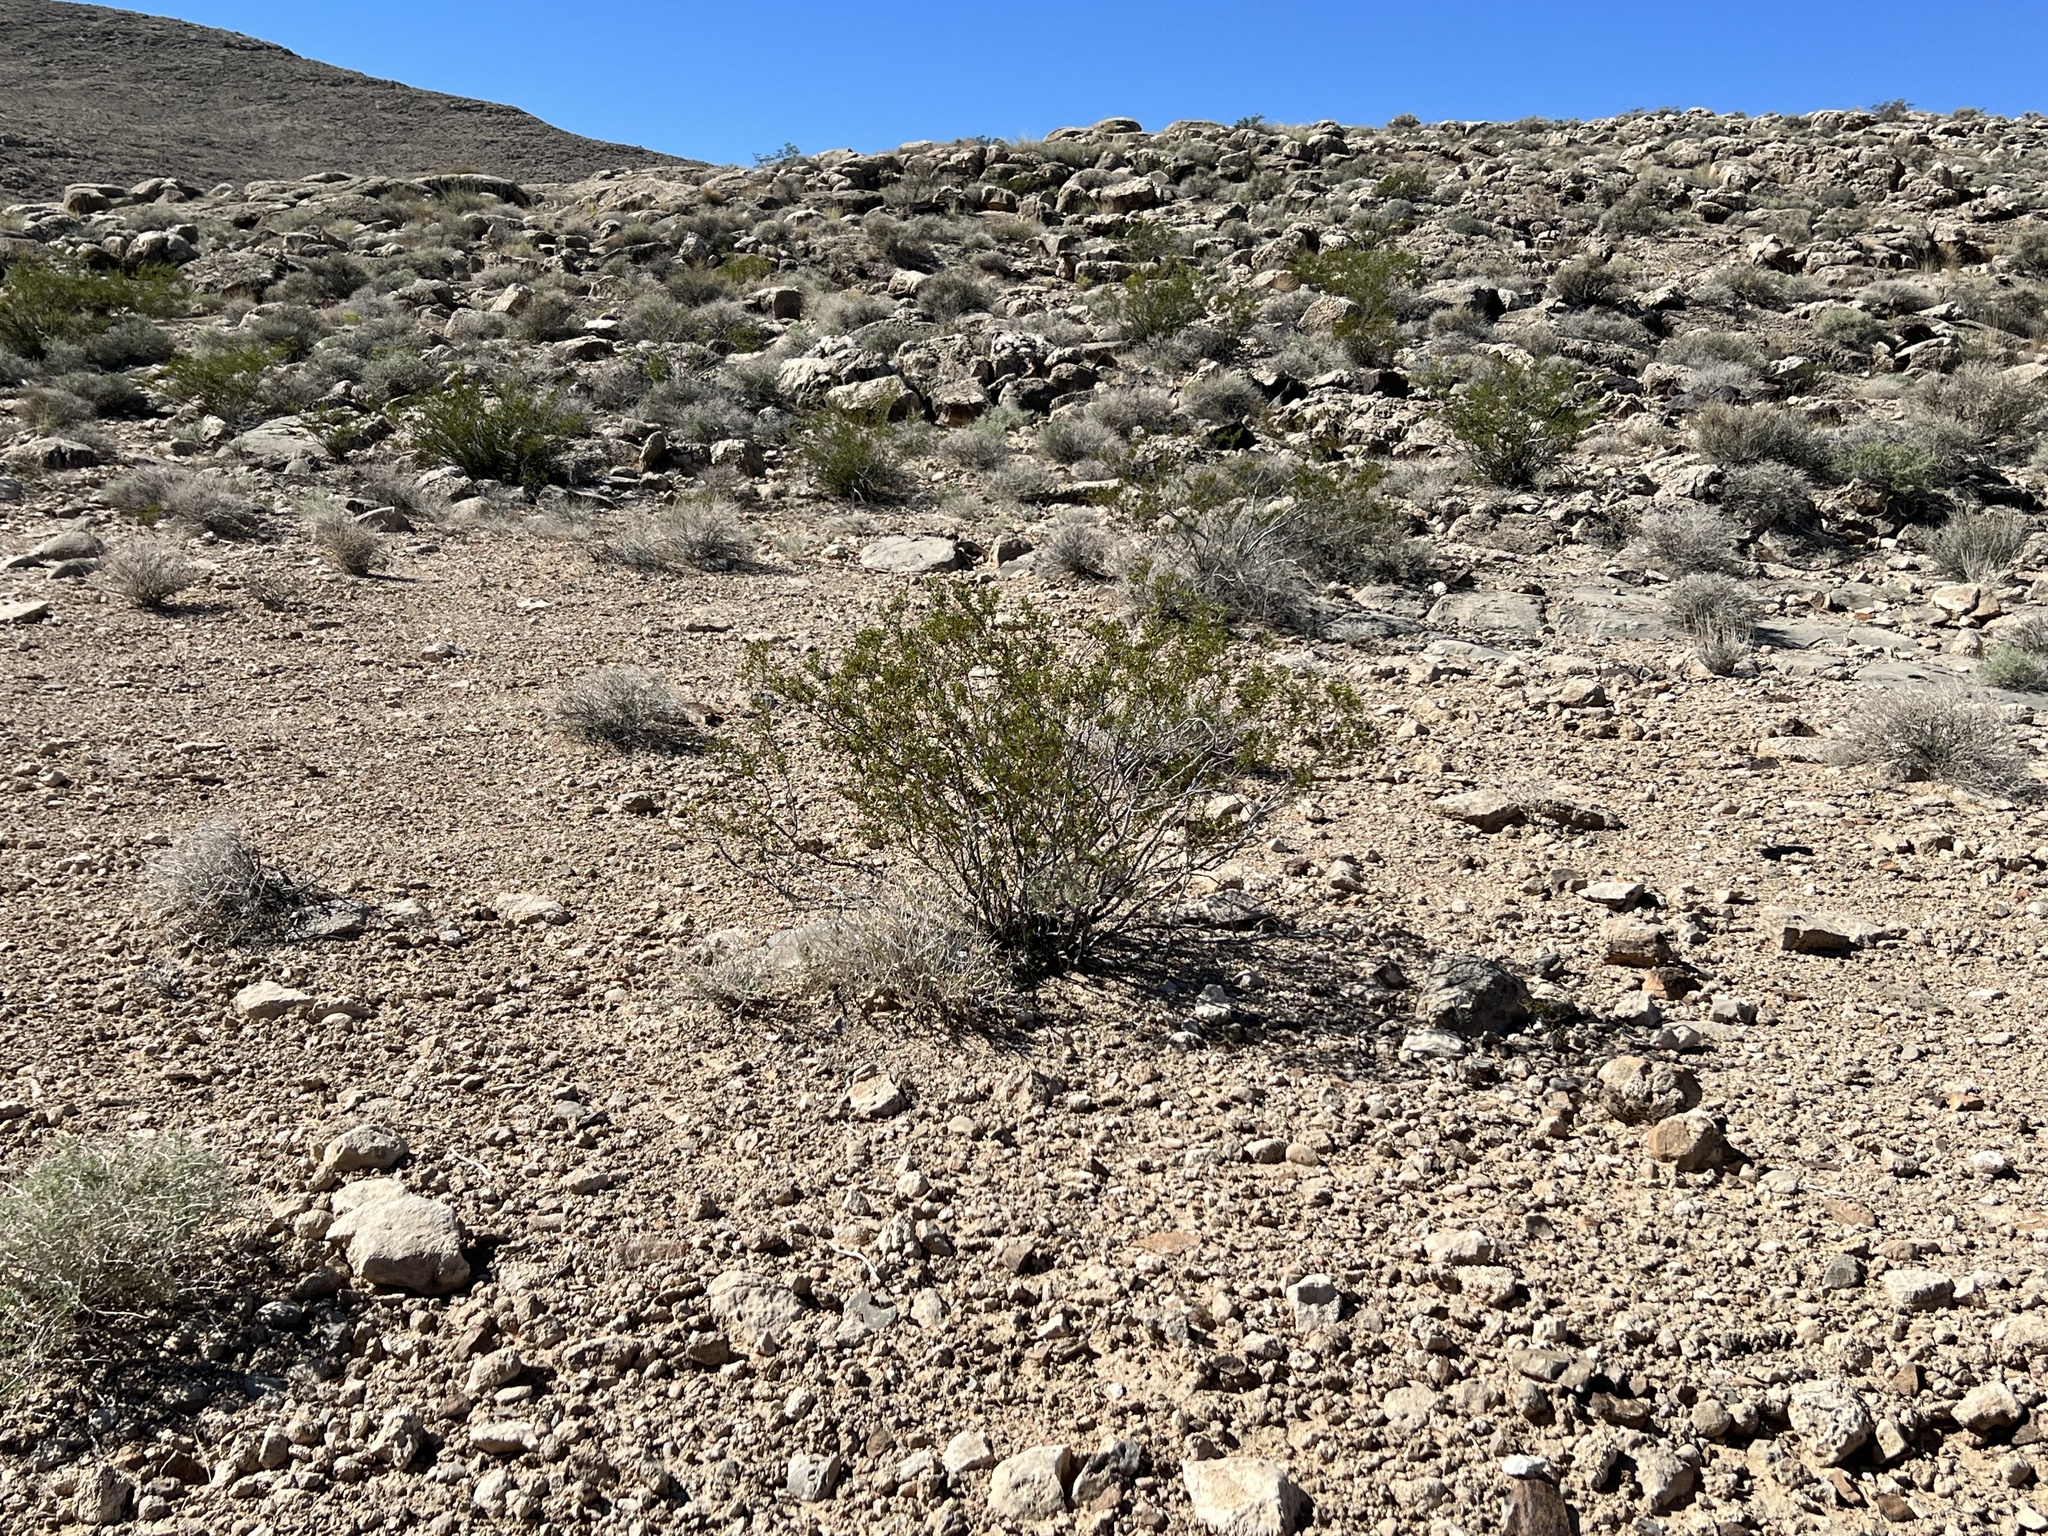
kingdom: Plantae
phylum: Tracheophyta
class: Magnoliopsida
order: Zygophyllales
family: Zygophyllaceae
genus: Larrea
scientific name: Larrea tridentata
